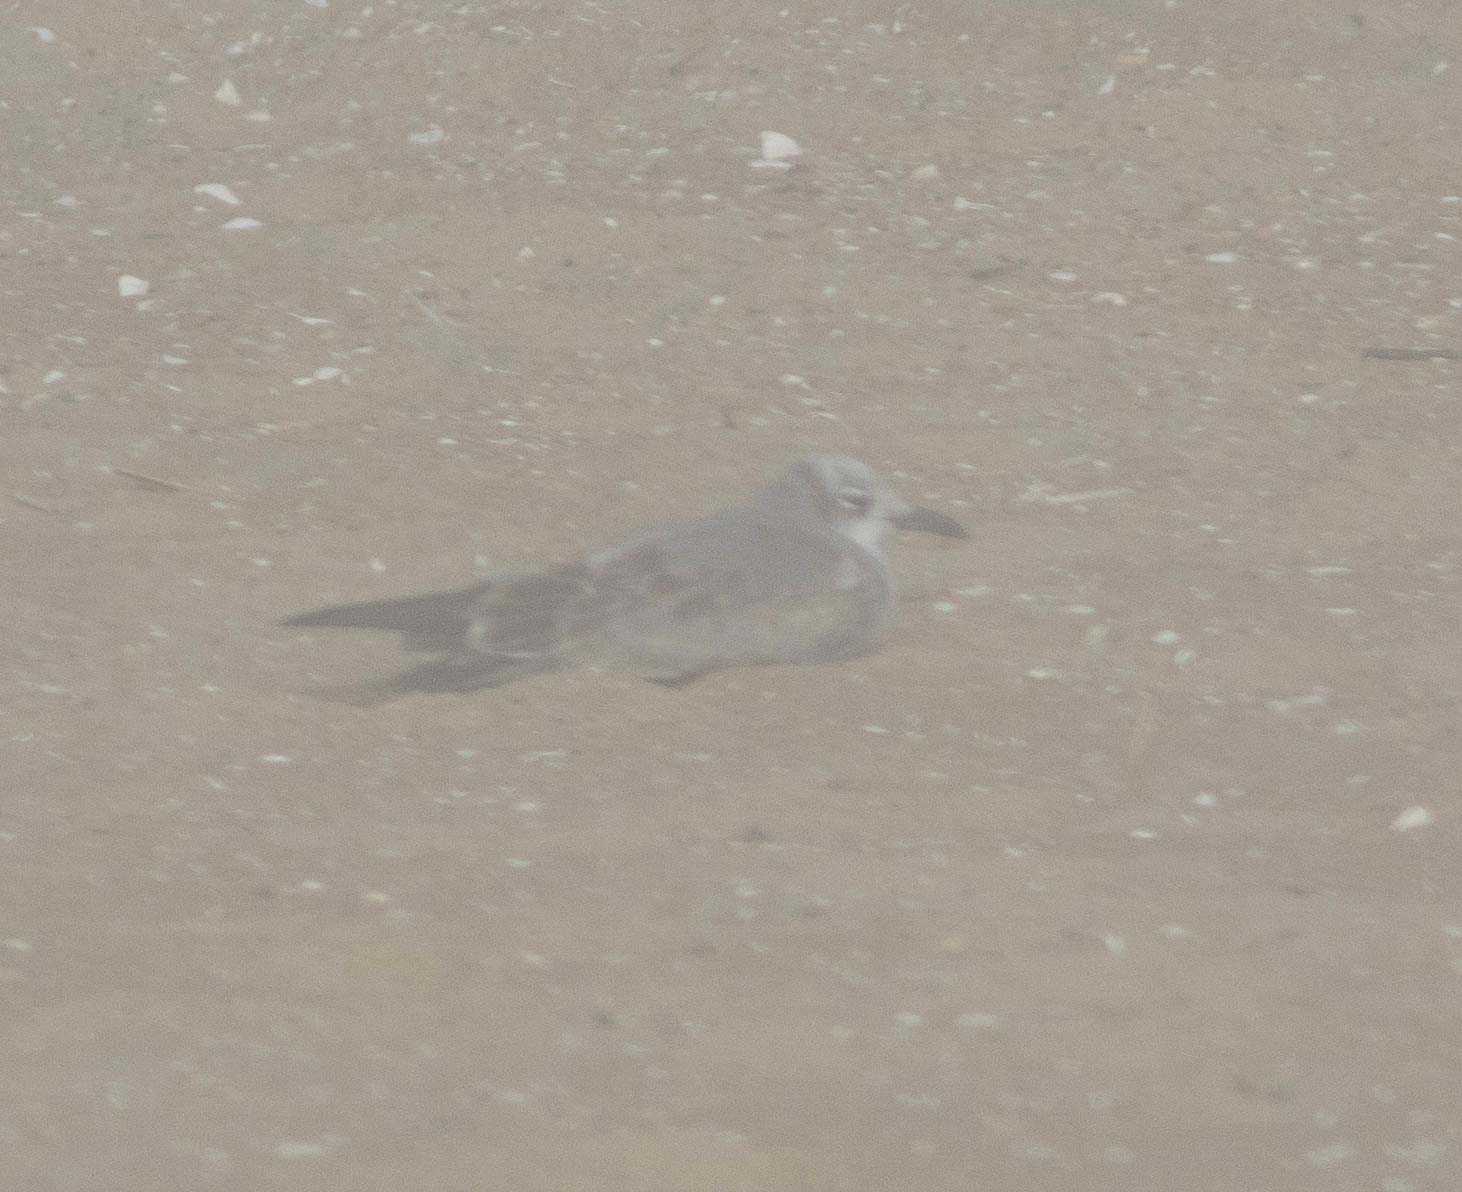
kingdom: Animalia
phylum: Chordata
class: Aves
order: Charadriiformes
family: Laridae
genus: Leucophaeus
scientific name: Leucophaeus atricilla
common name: Laughing gull
